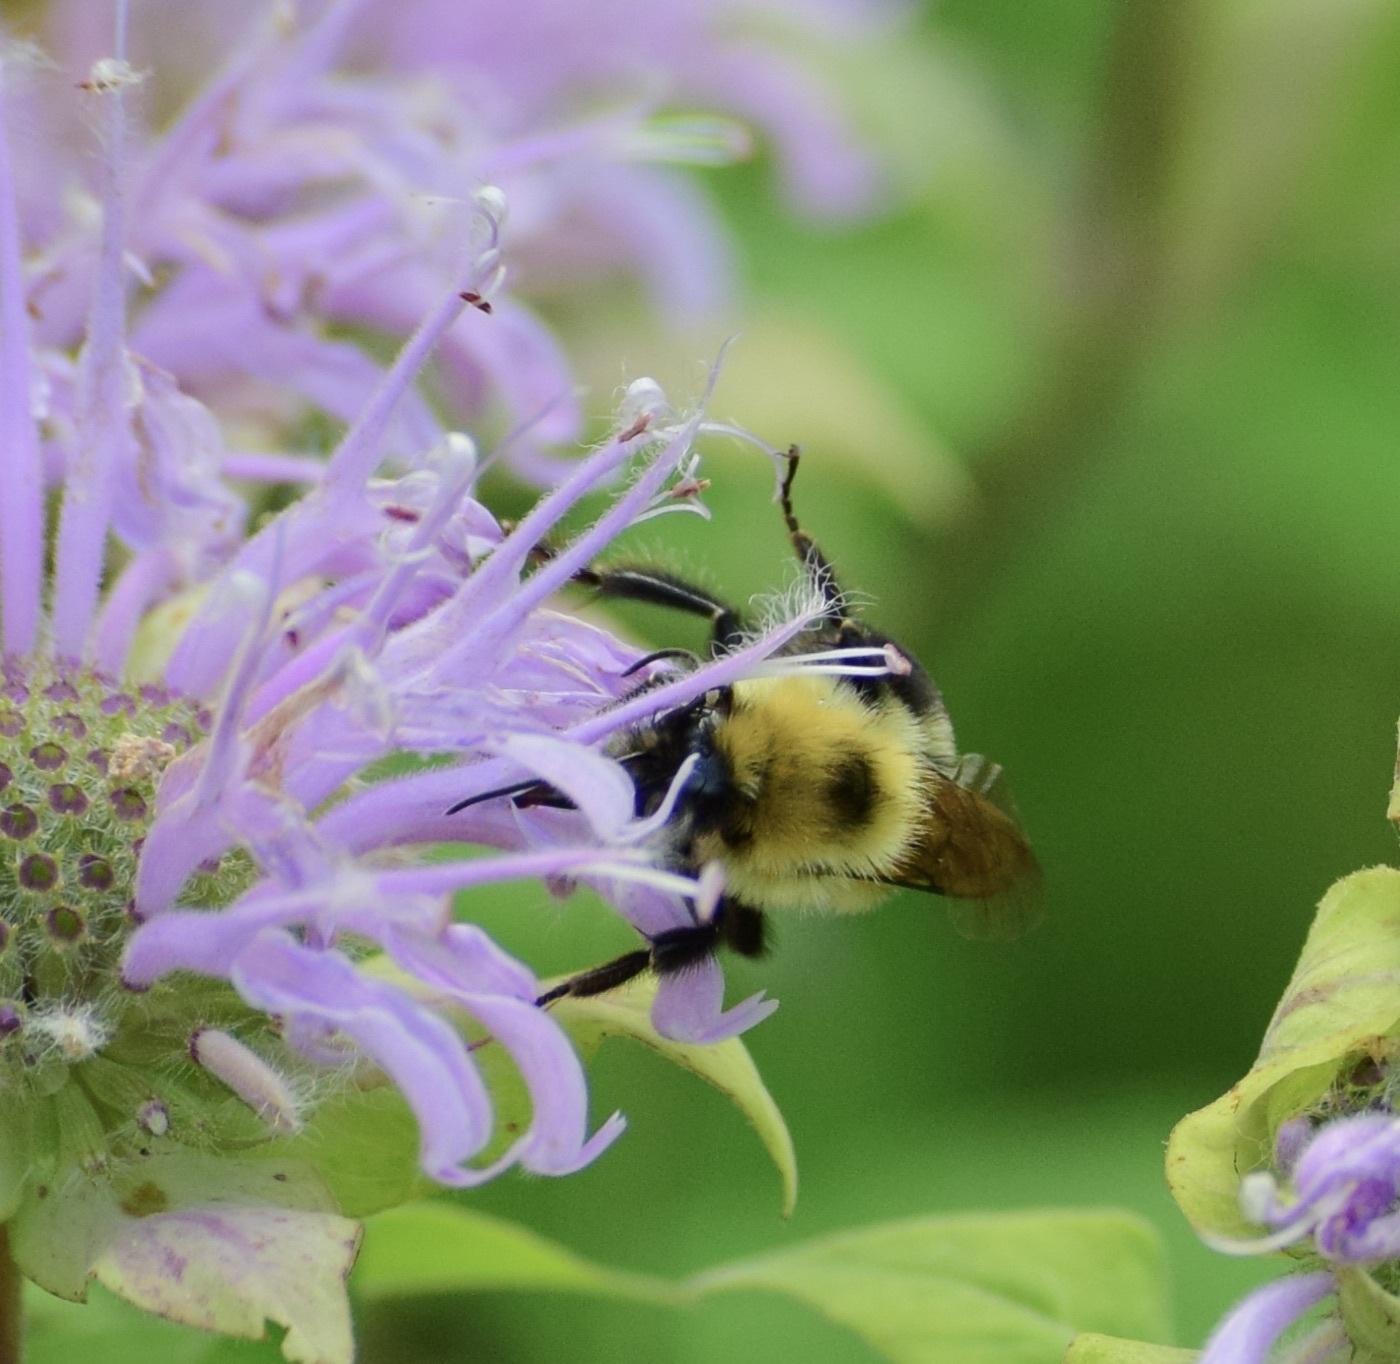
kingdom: Animalia
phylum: Arthropoda
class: Insecta
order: Hymenoptera
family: Apidae
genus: Bombus
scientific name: Bombus bimaculatus
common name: Two-spotted bumble bee
